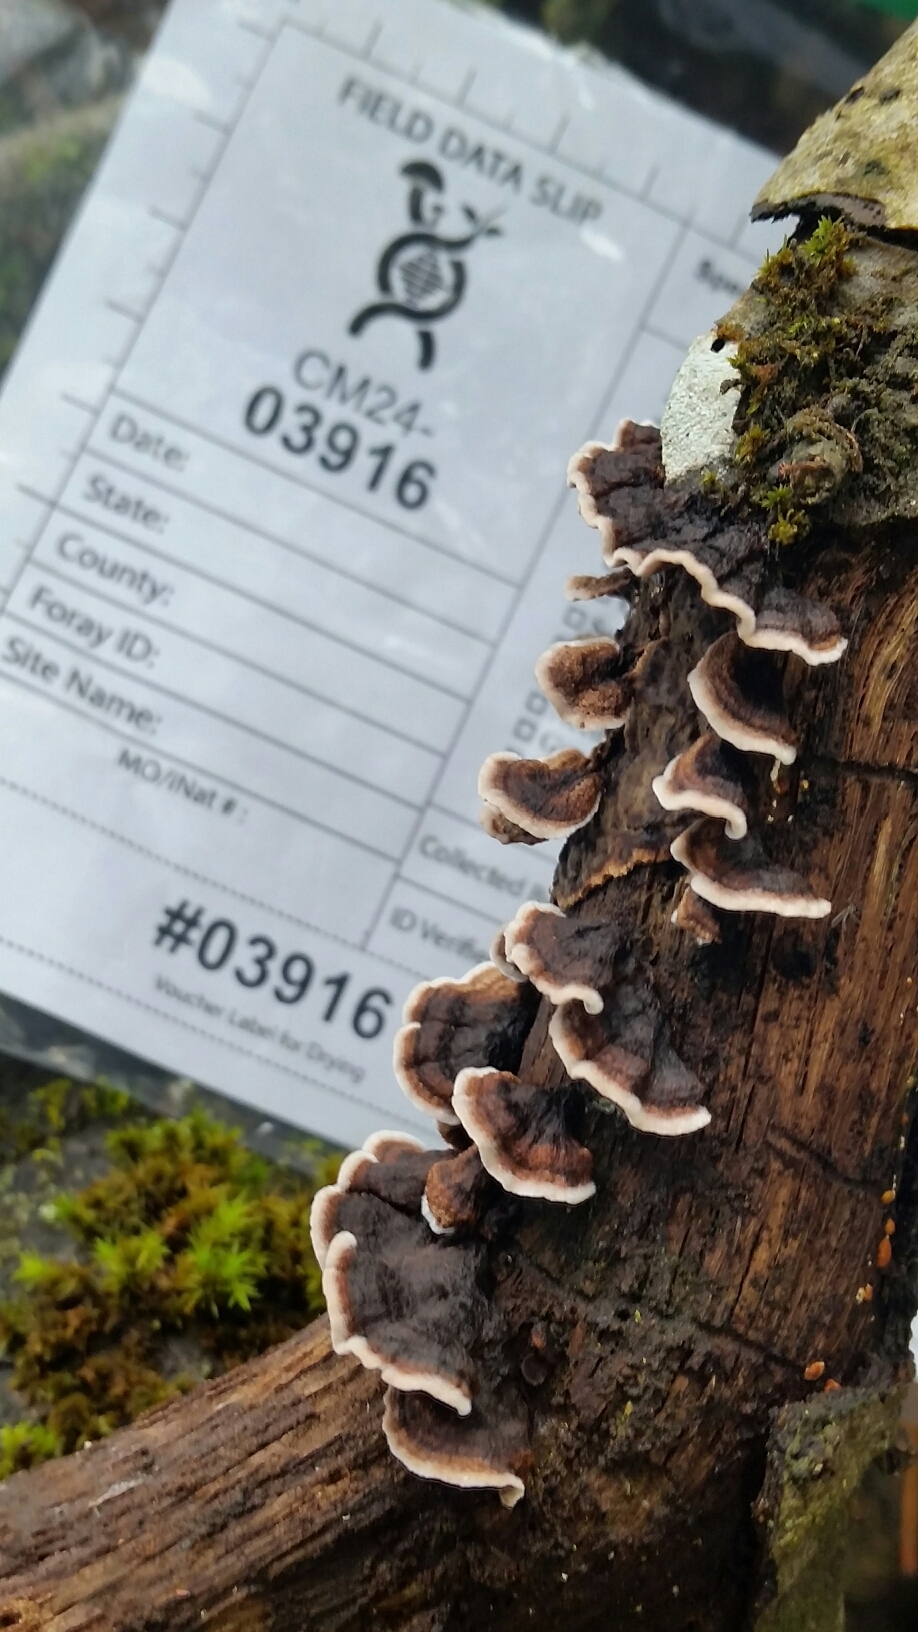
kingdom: Fungi
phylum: Basidiomycota
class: Agaricomycetes
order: Russulales
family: Peniophoraceae
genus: Peniophora
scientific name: Peniophora albobadia
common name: Giraffe spots
